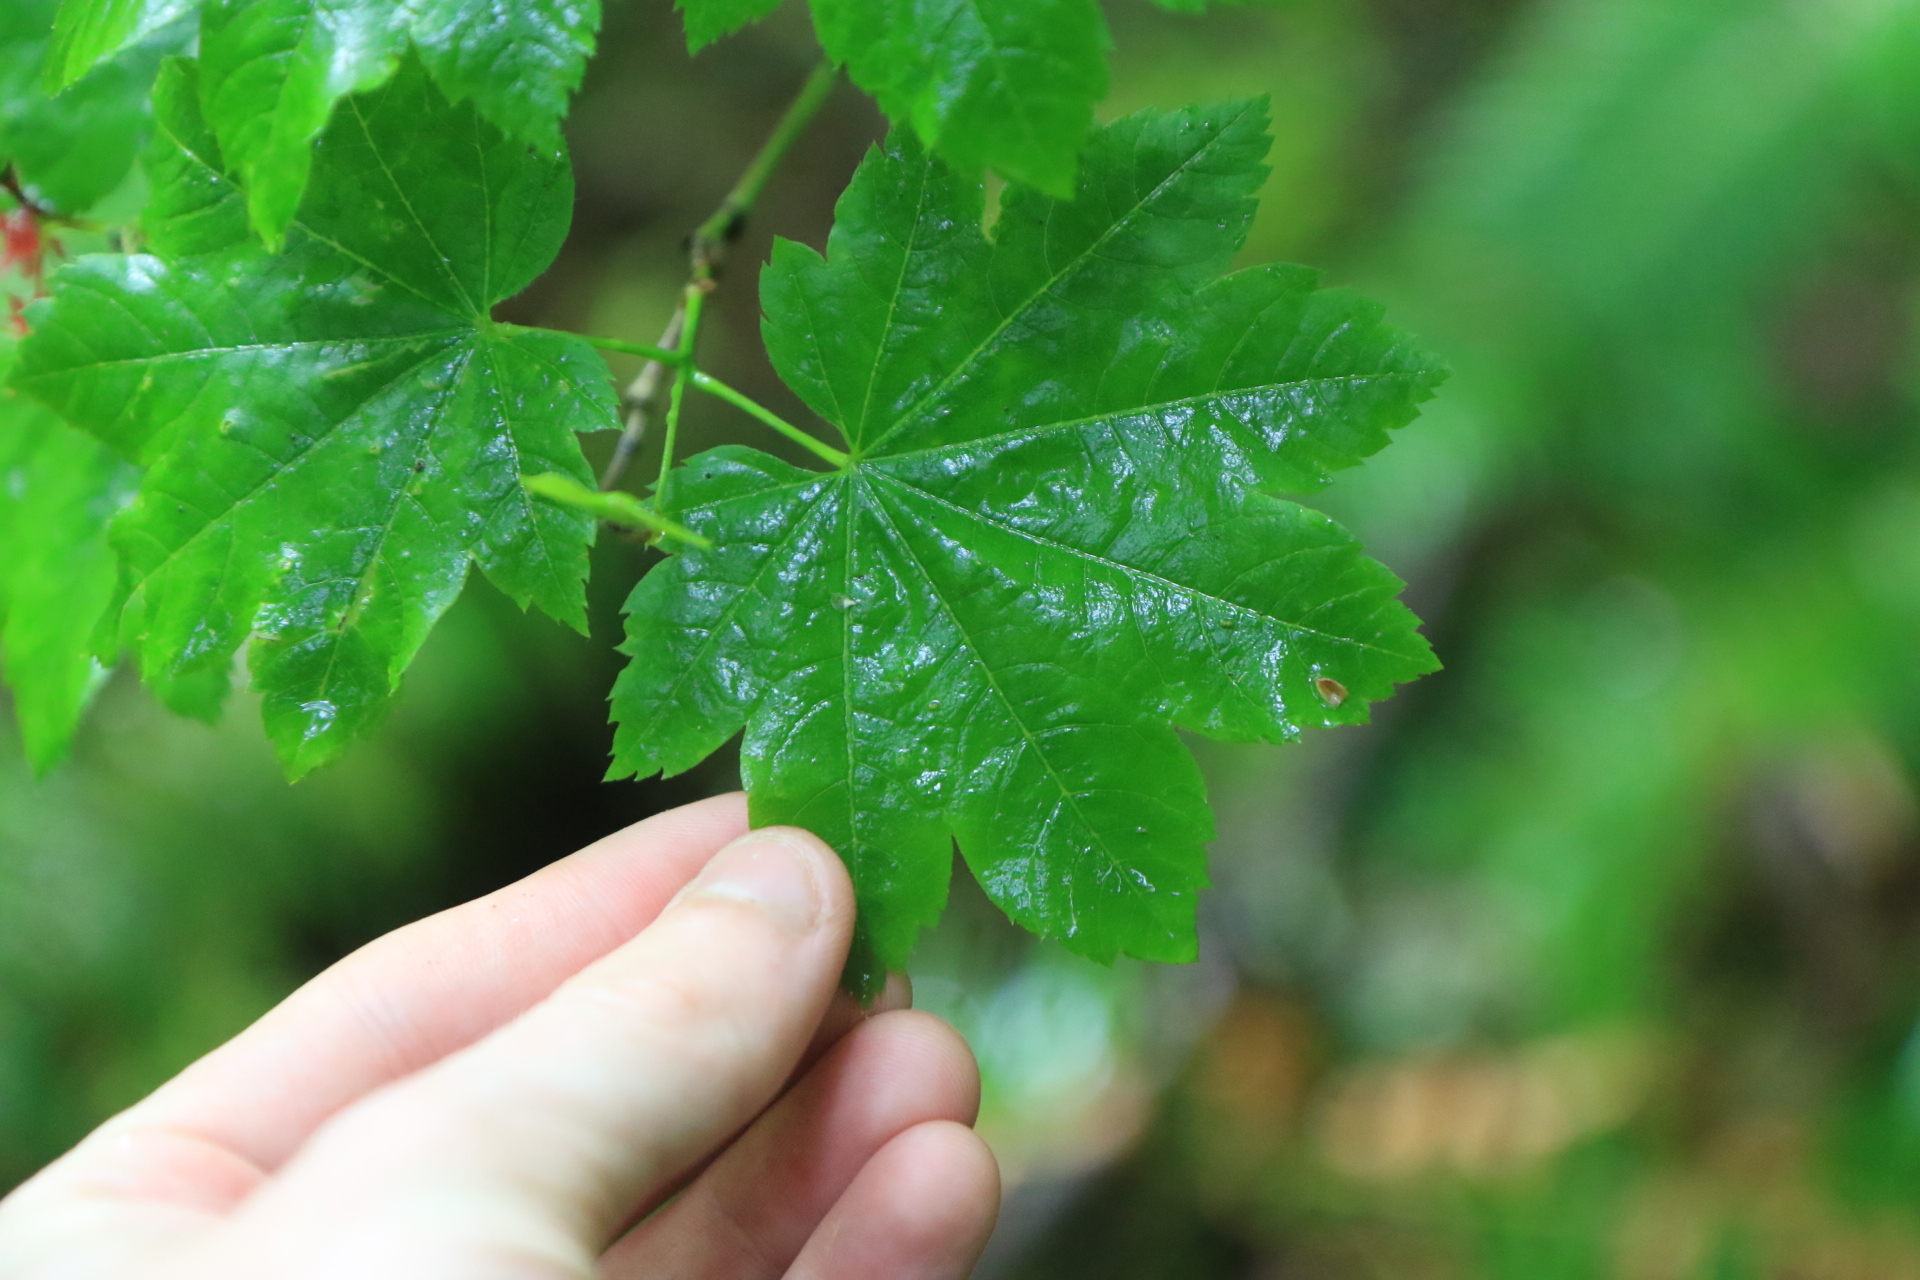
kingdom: Plantae
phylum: Tracheophyta
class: Magnoliopsida
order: Sapindales
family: Sapindaceae
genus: Acer
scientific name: Acer circinatum
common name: Vine maple
